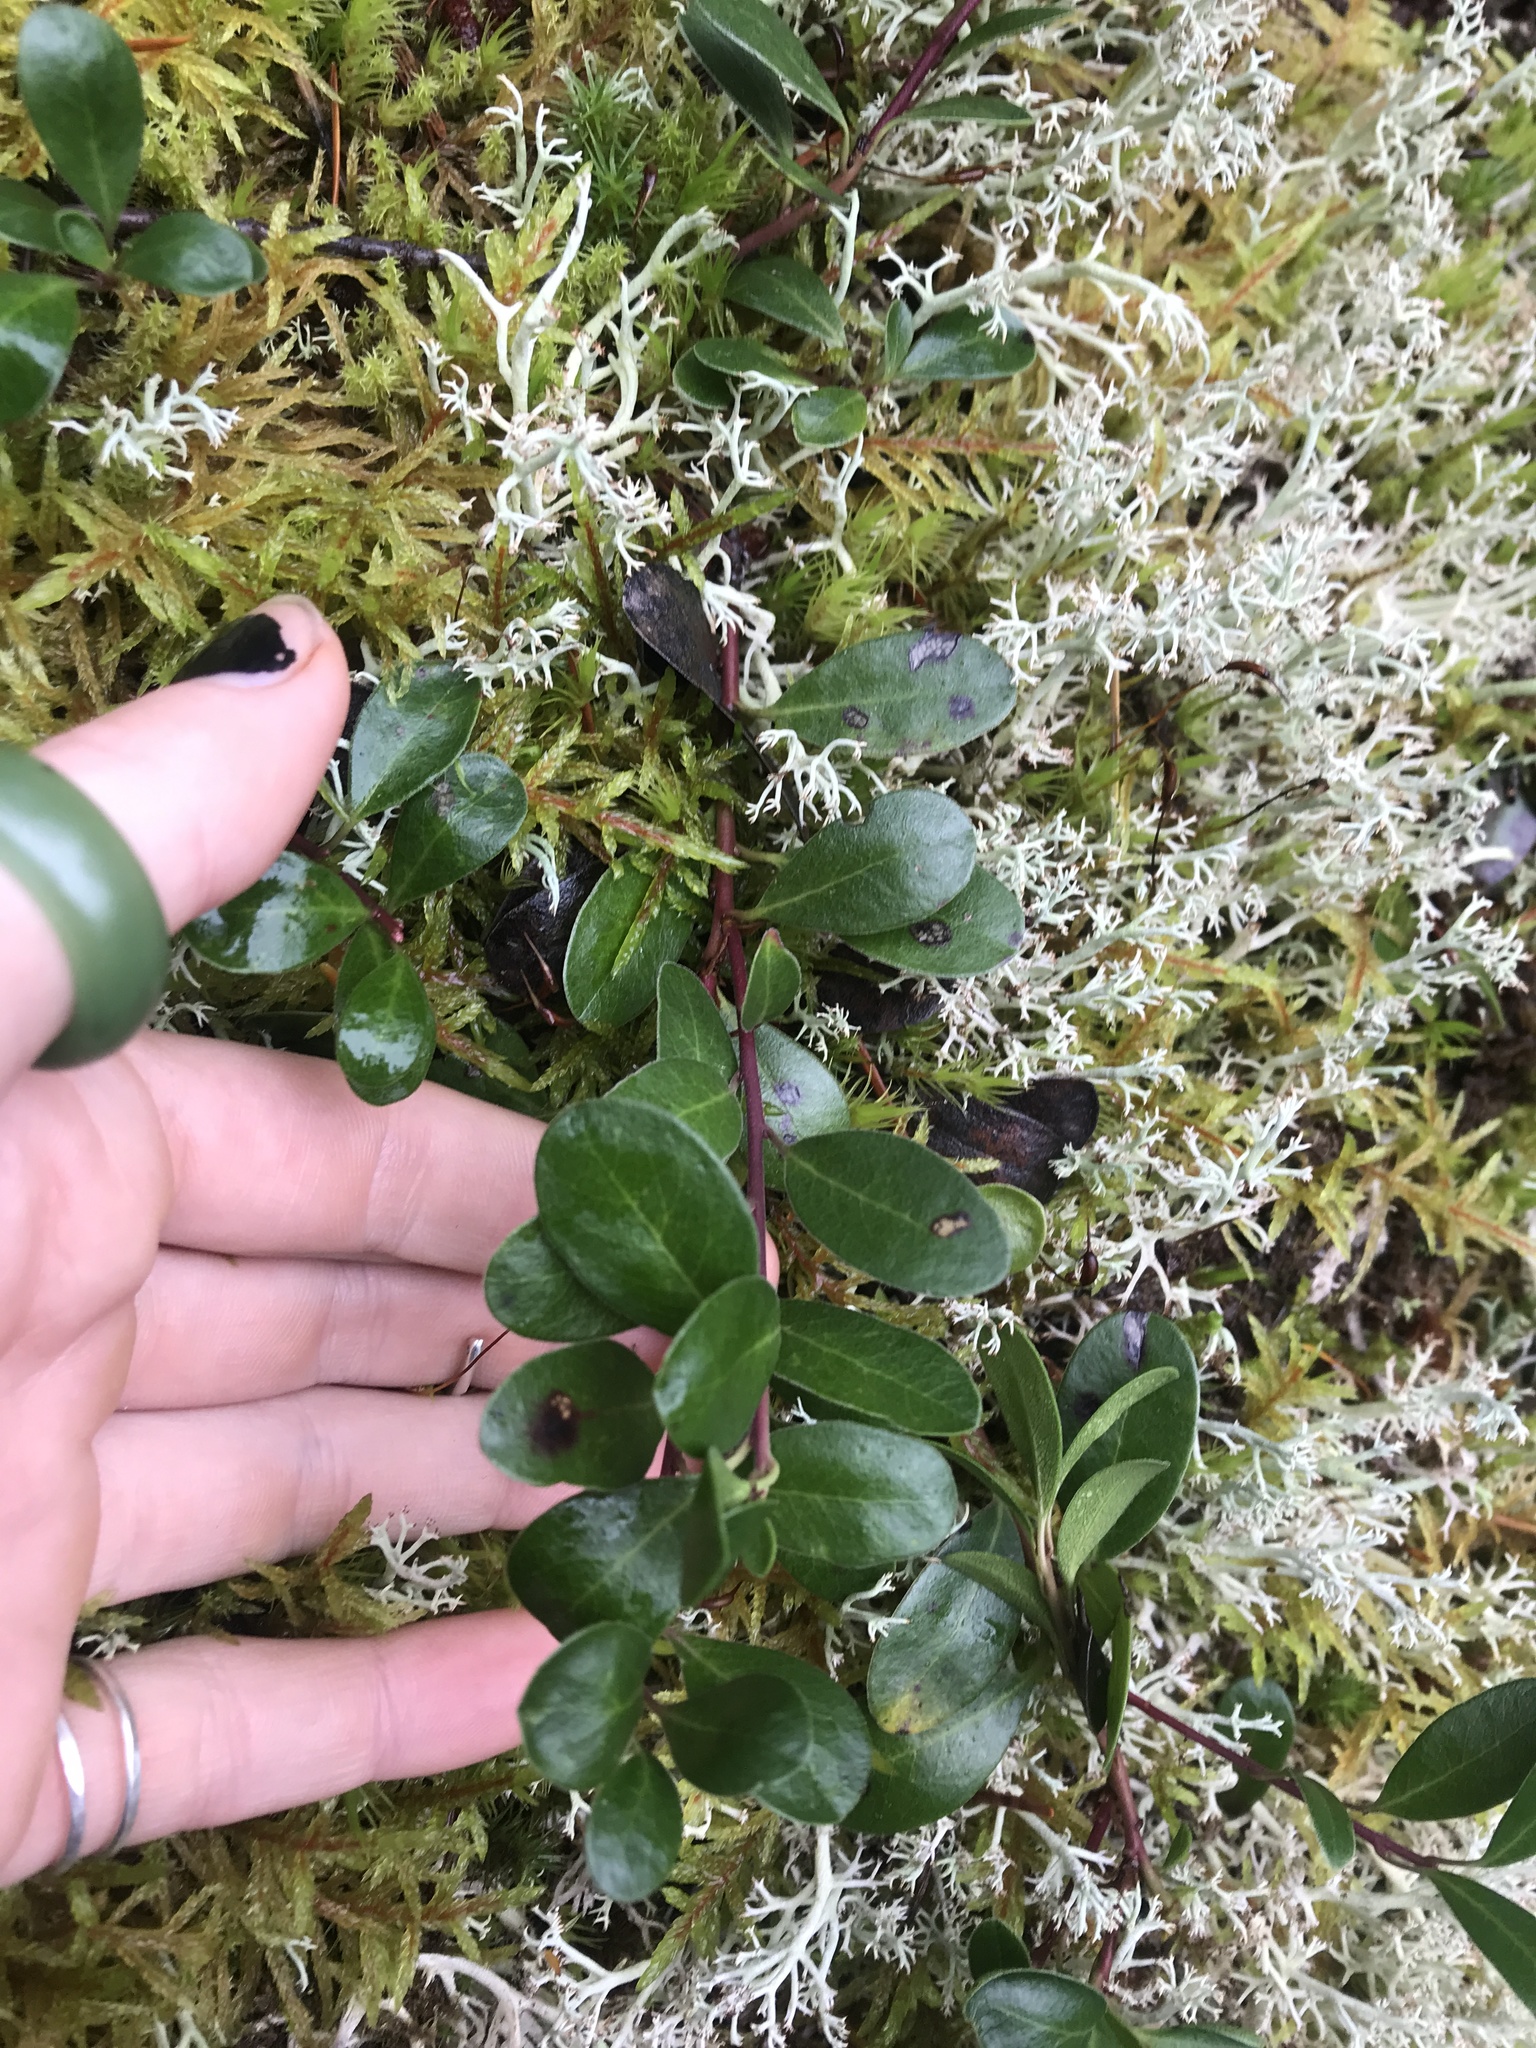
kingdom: Plantae
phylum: Tracheophyta
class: Magnoliopsida
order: Ericales
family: Ericaceae
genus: Arctostaphylos
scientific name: Arctostaphylos uva-ursi
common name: Bearberry
